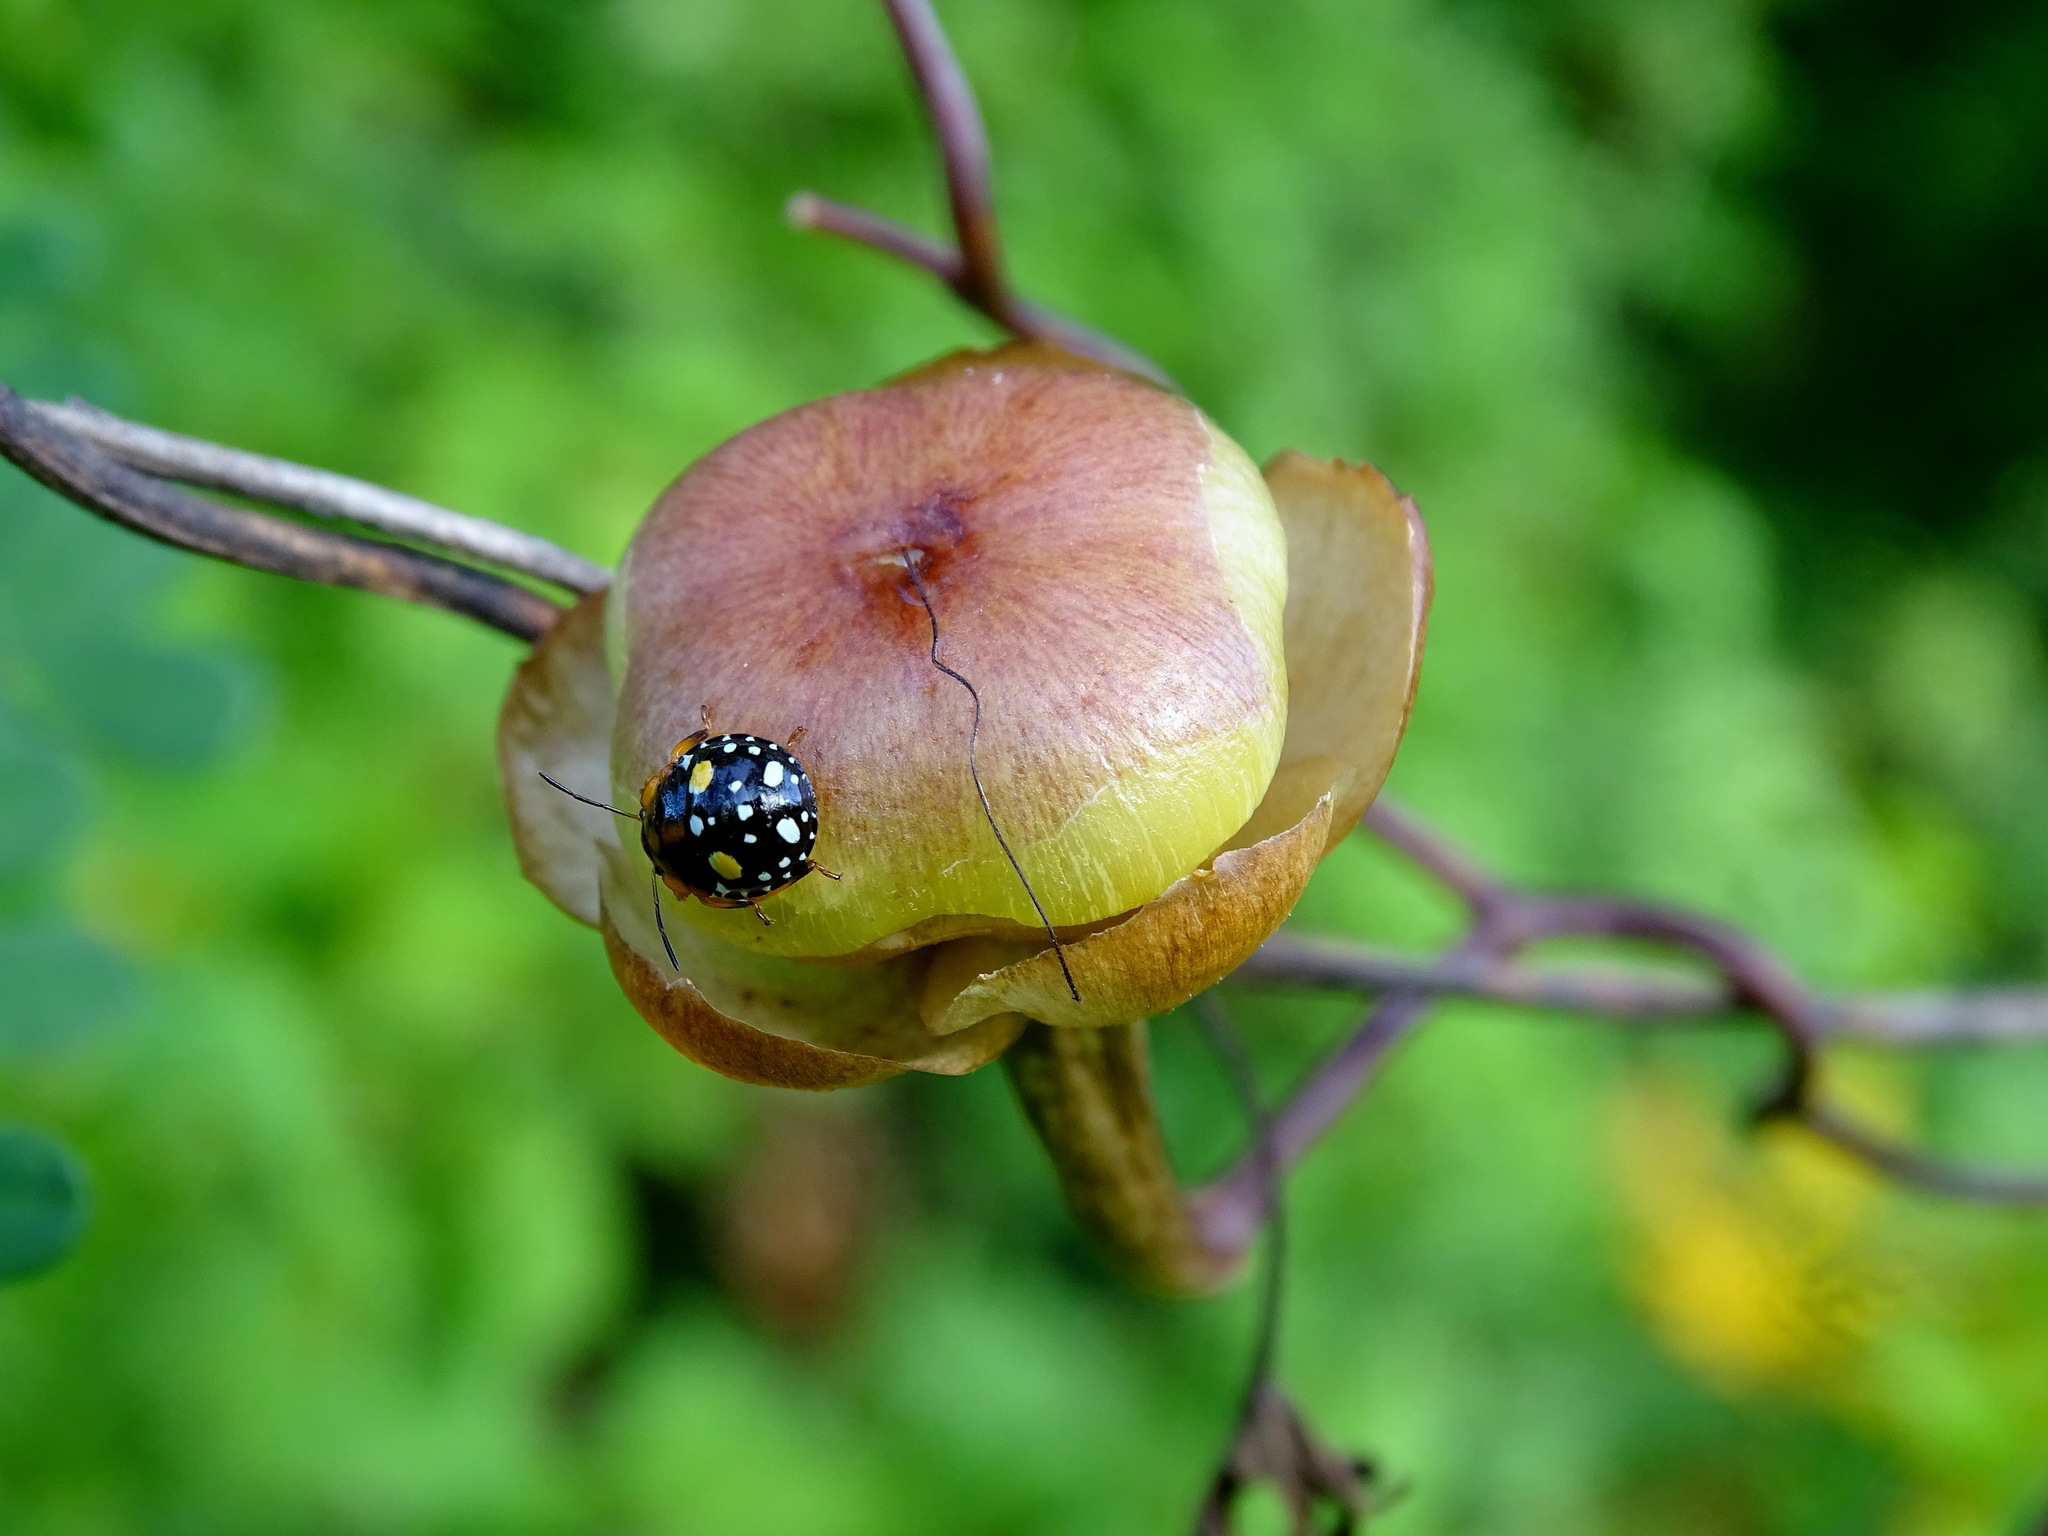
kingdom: Plantae
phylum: Tracheophyta
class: Magnoliopsida
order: Solanales
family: Convolvulaceae
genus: Operculina
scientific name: Operculina pinnatifida
